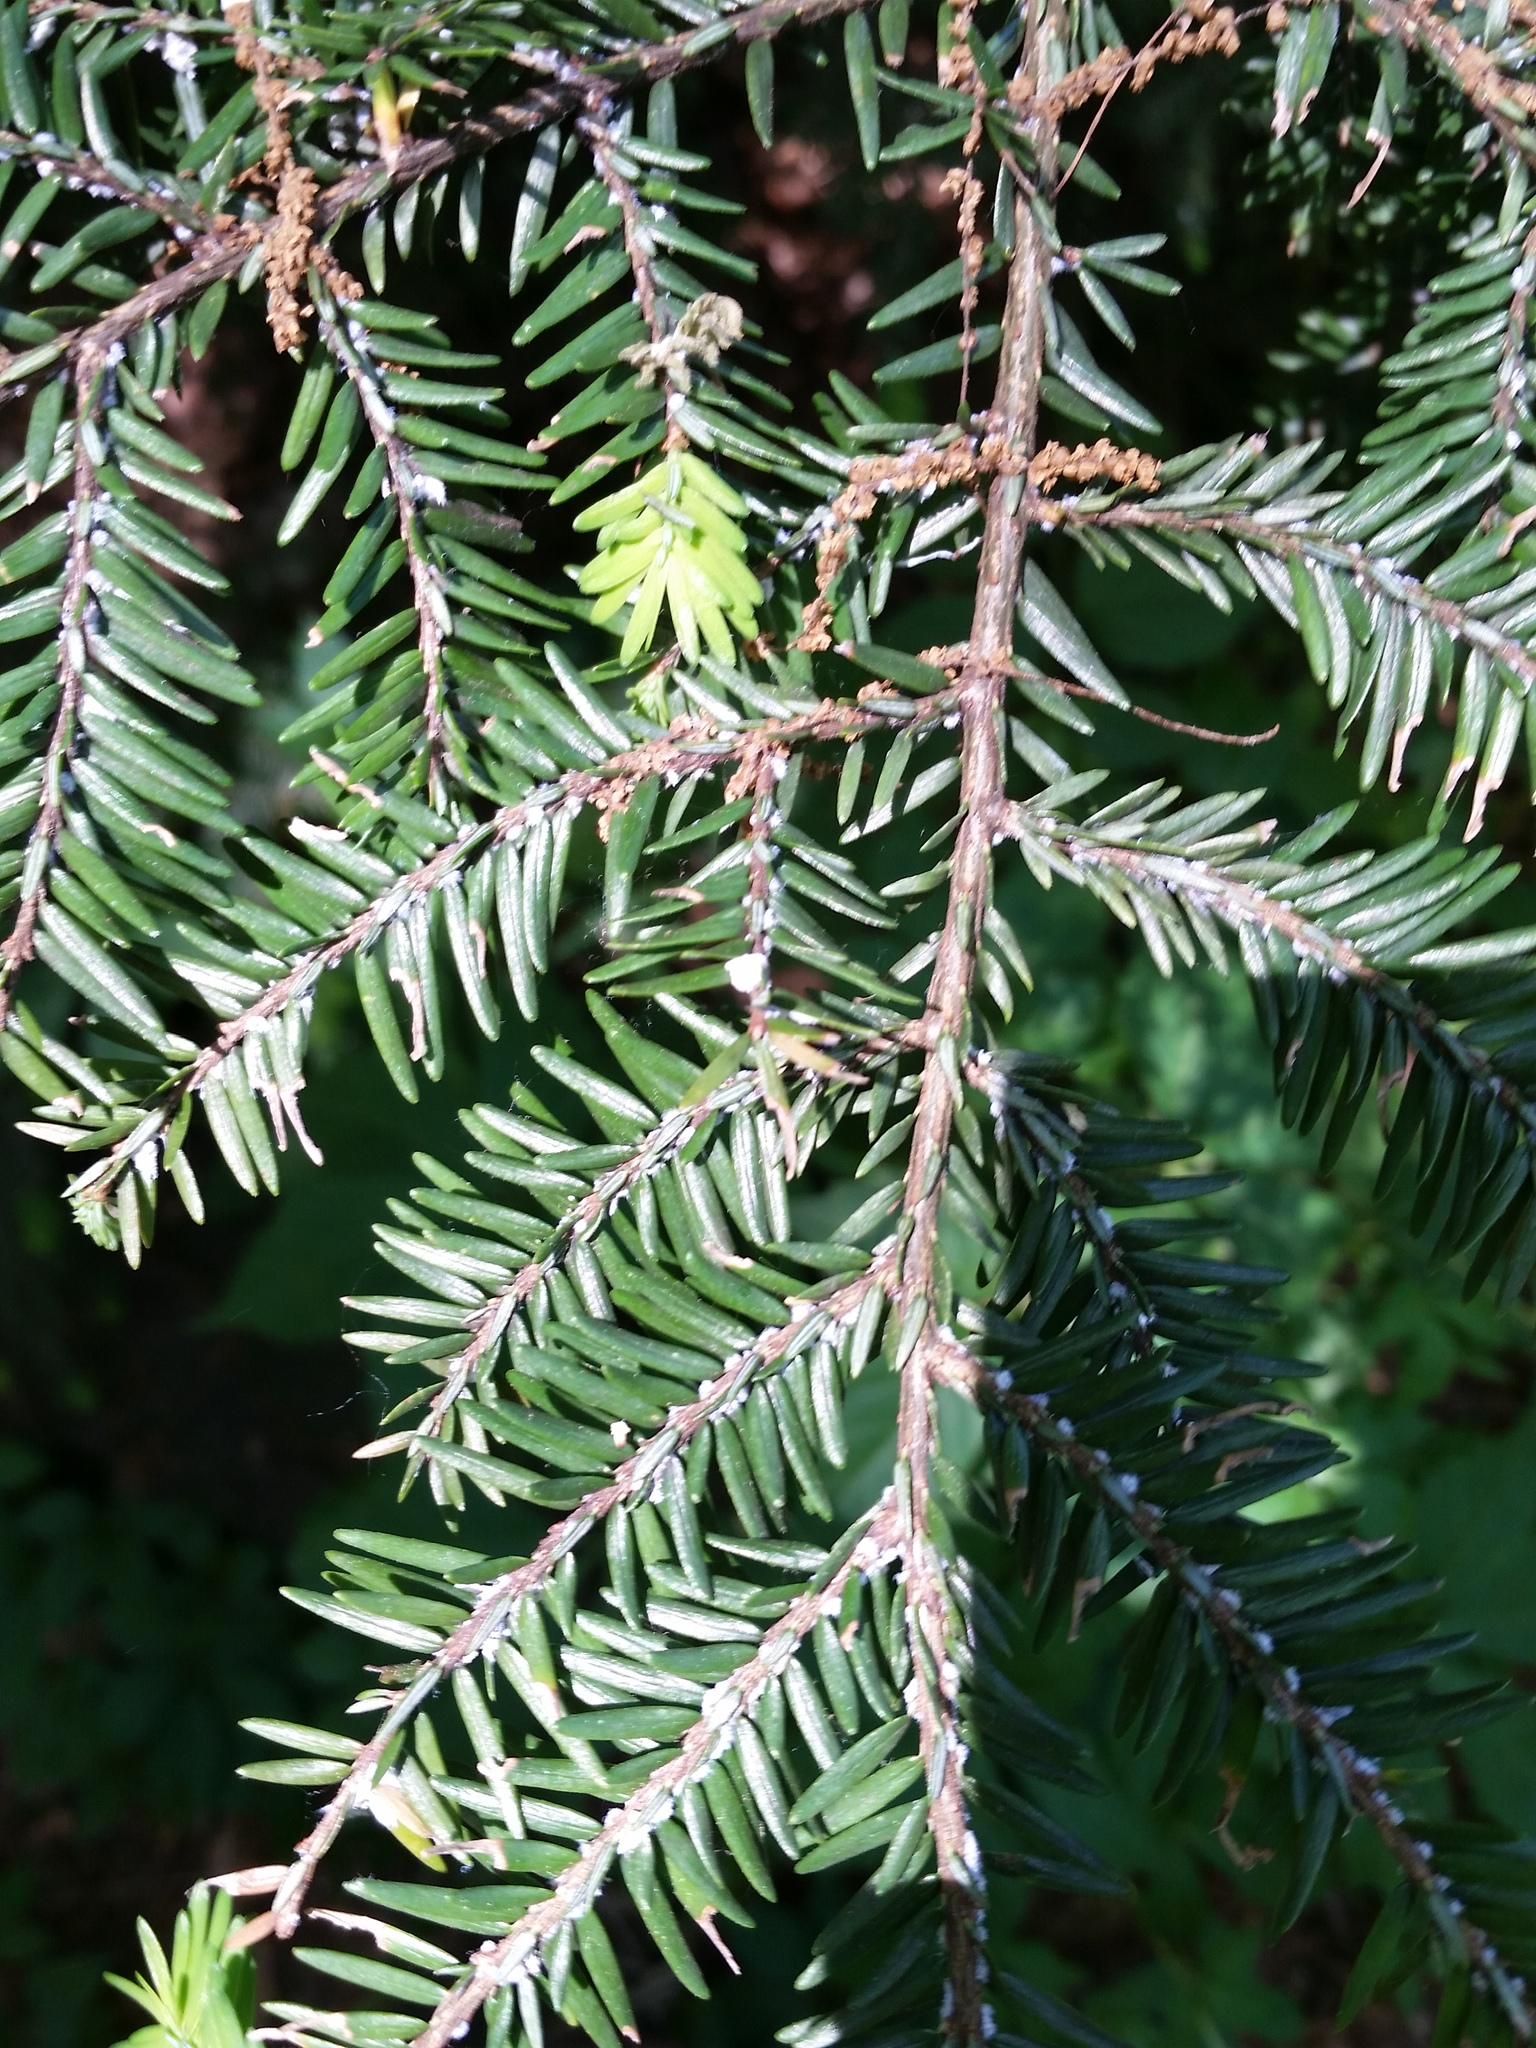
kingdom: Animalia
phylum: Arthropoda
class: Insecta
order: Hemiptera
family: Adelgidae
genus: Adelges
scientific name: Adelges tsugae
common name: Hemlock woolly adelgid
